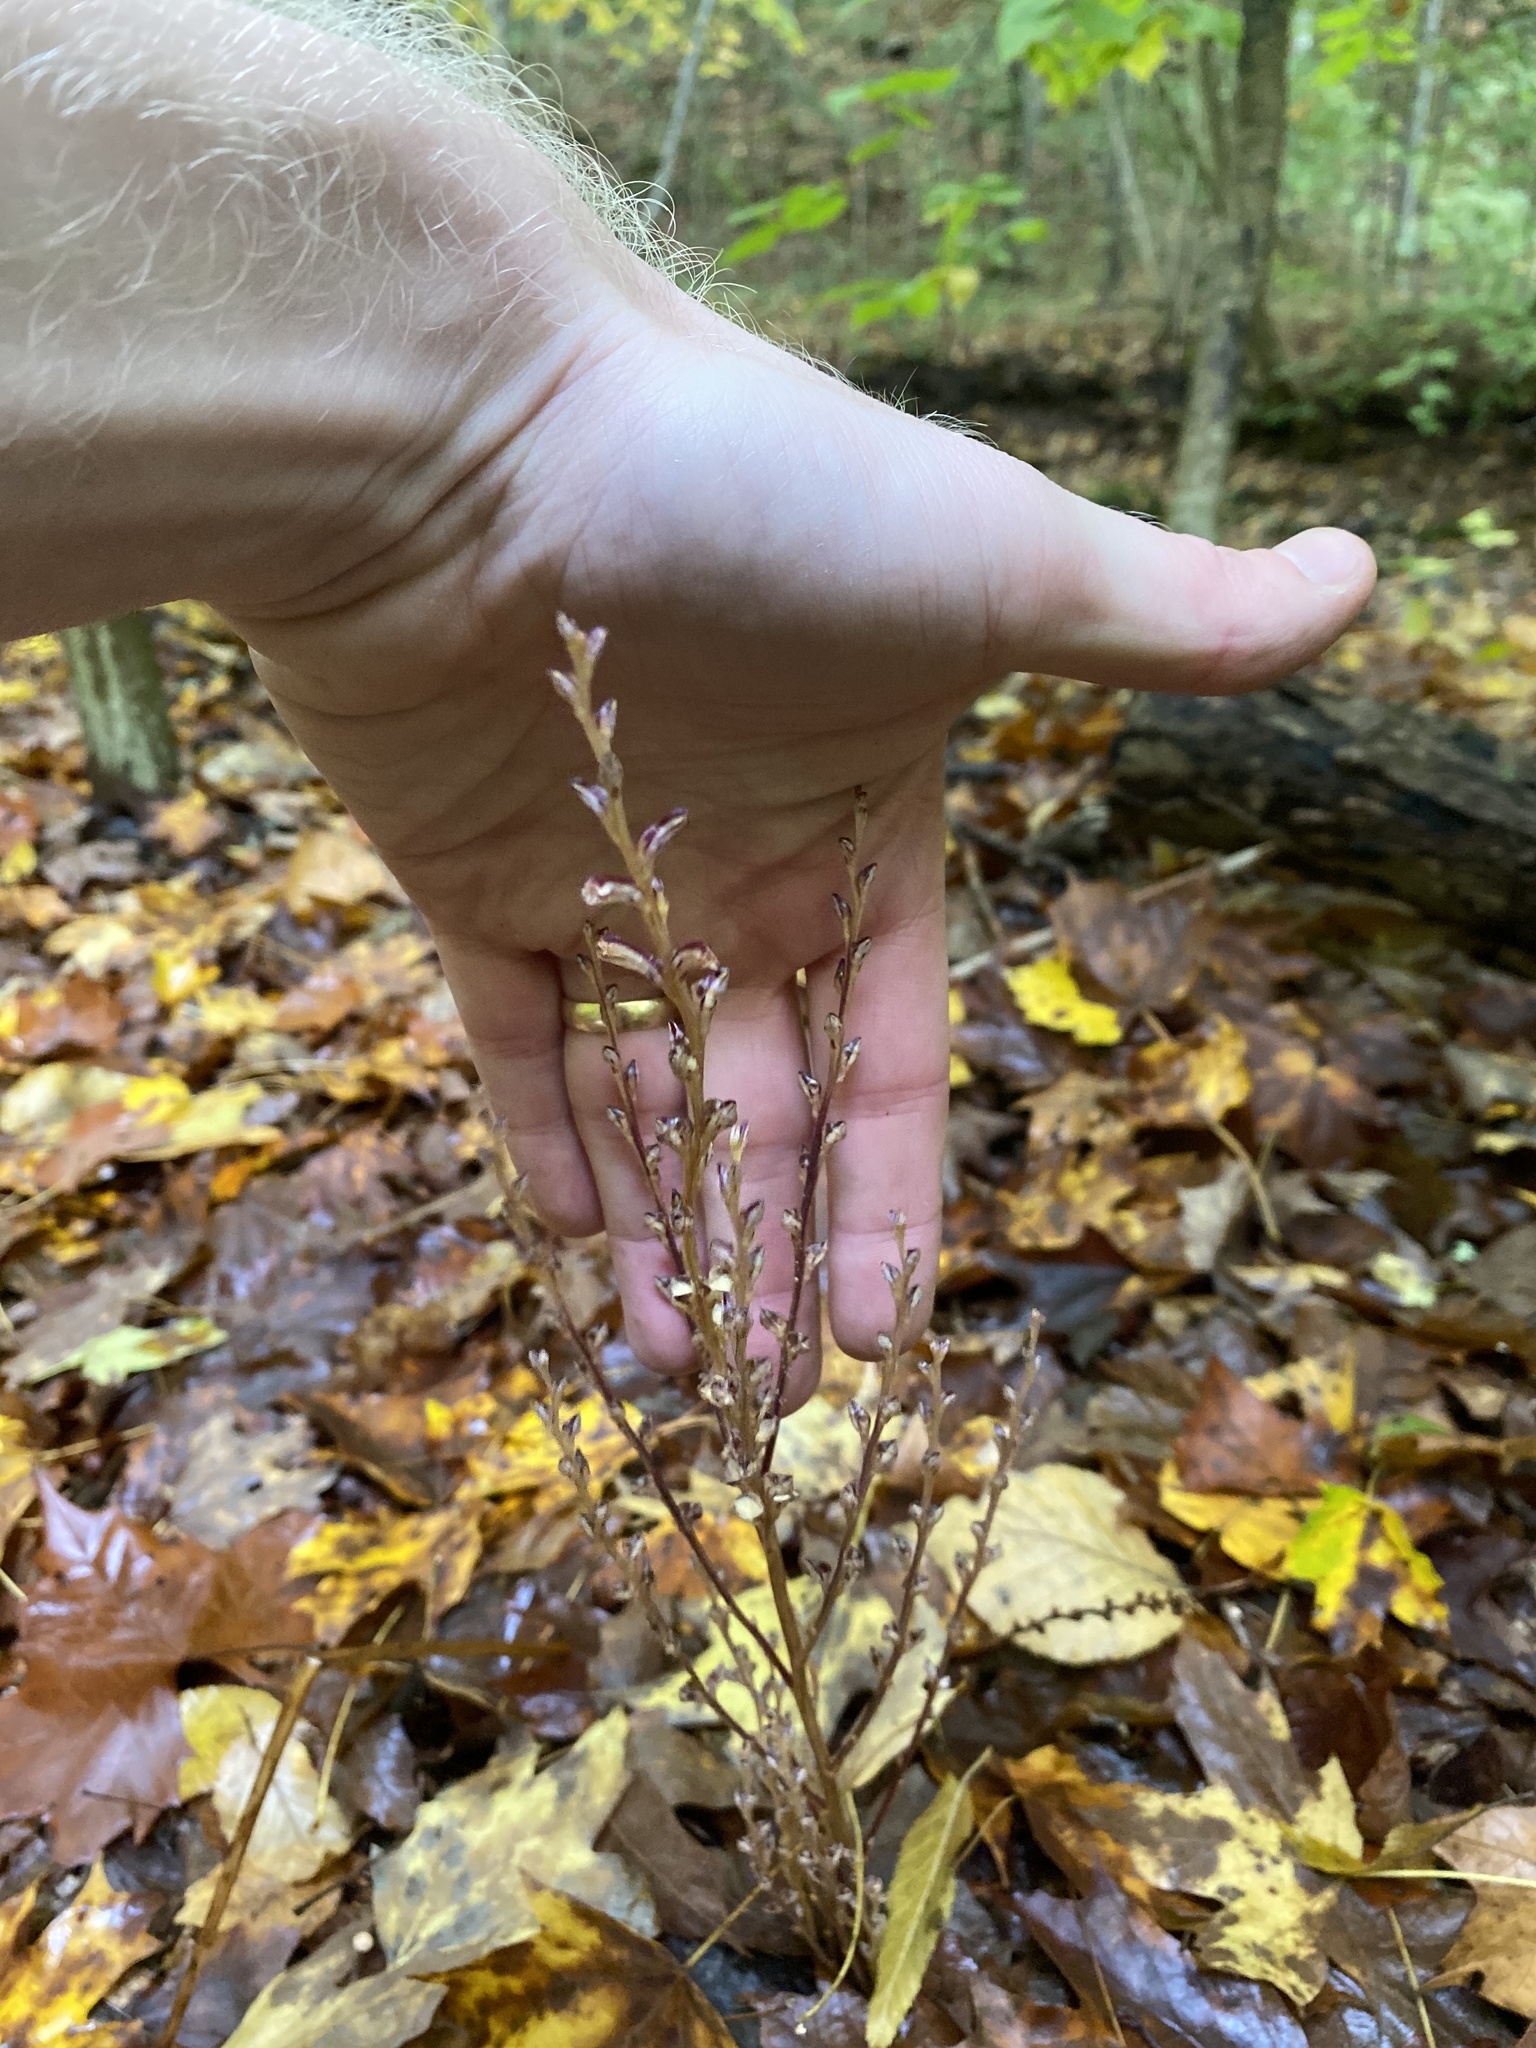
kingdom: Plantae
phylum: Tracheophyta
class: Magnoliopsida
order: Lamiales
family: Orobanchaceae
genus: Epifagus
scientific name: Epifagus virginiana
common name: Beechdrops
